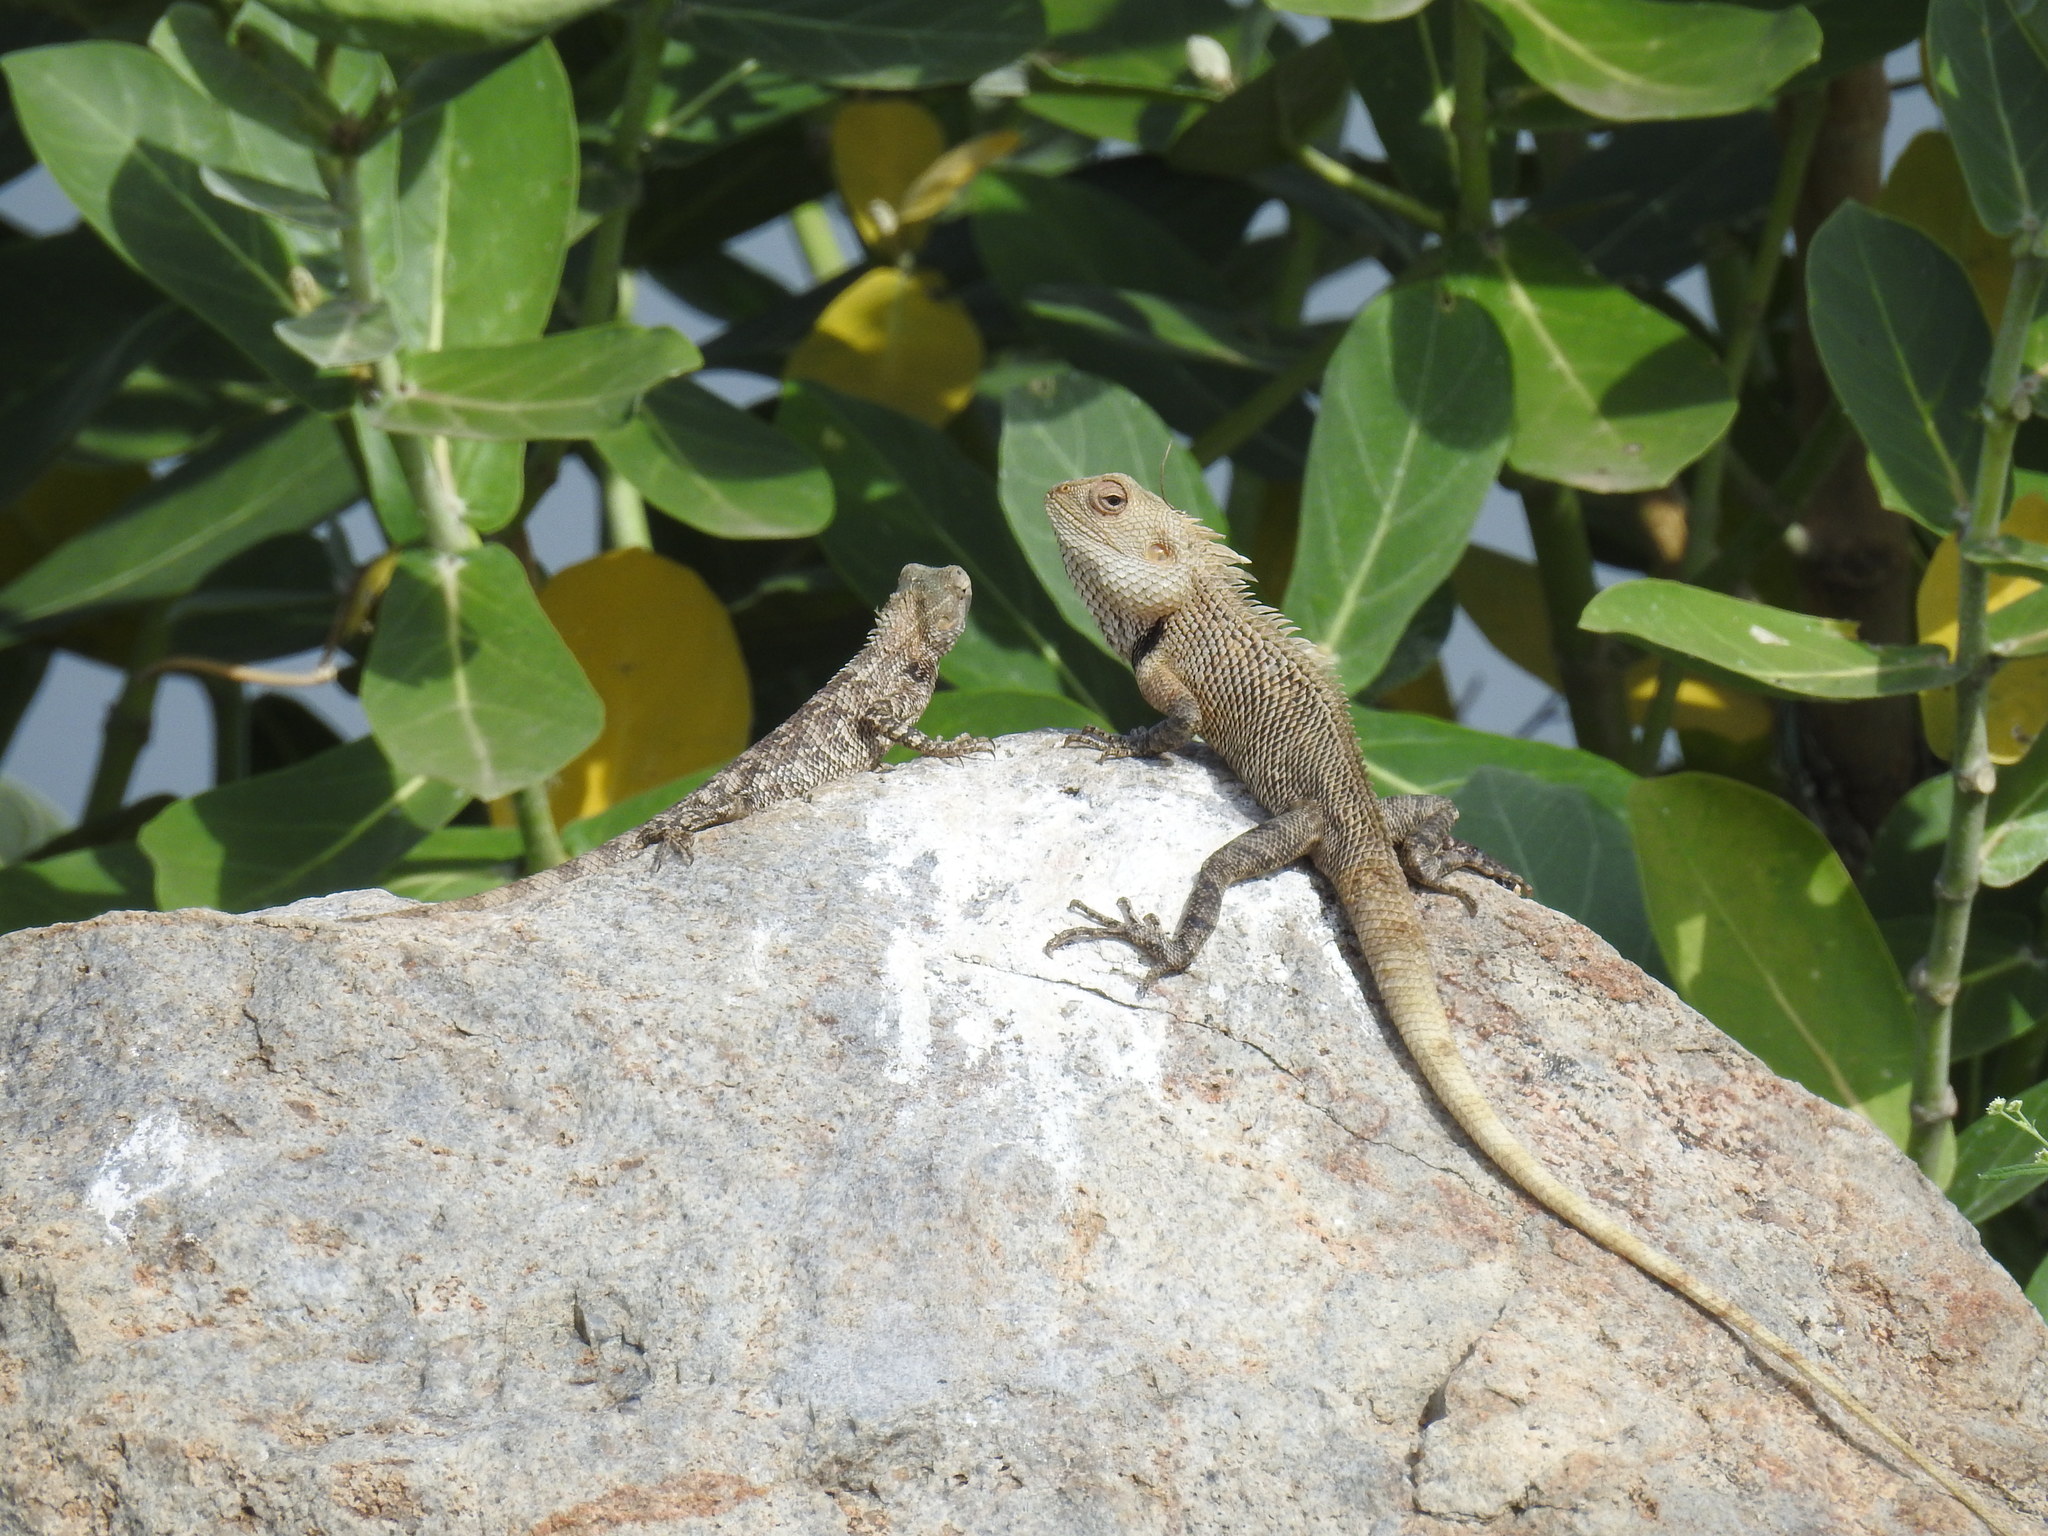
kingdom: Animalia
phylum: Chordata
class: Squamata
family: Agamidae
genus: Calotes
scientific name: Calotes versicolor
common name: Oriental garden lizard
